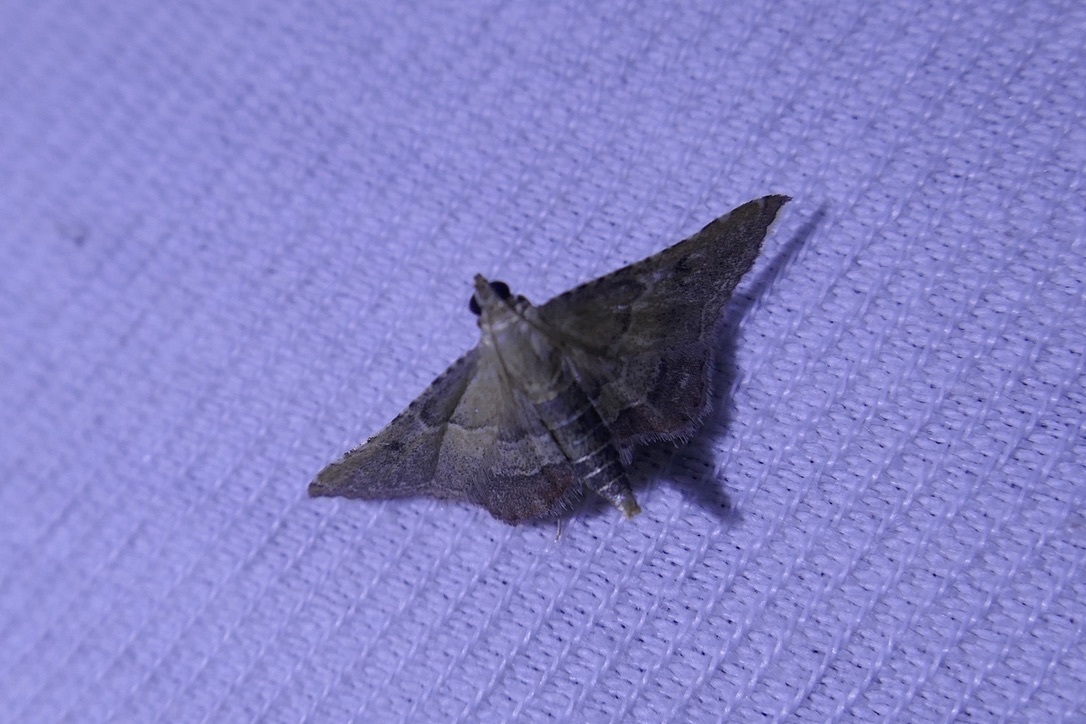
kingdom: Animalia
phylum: Arthropoda
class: Insecta
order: Lepidoptera
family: Pyralidae
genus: Endotricha
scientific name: Endotricha flammealis
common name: Rosy tabby
